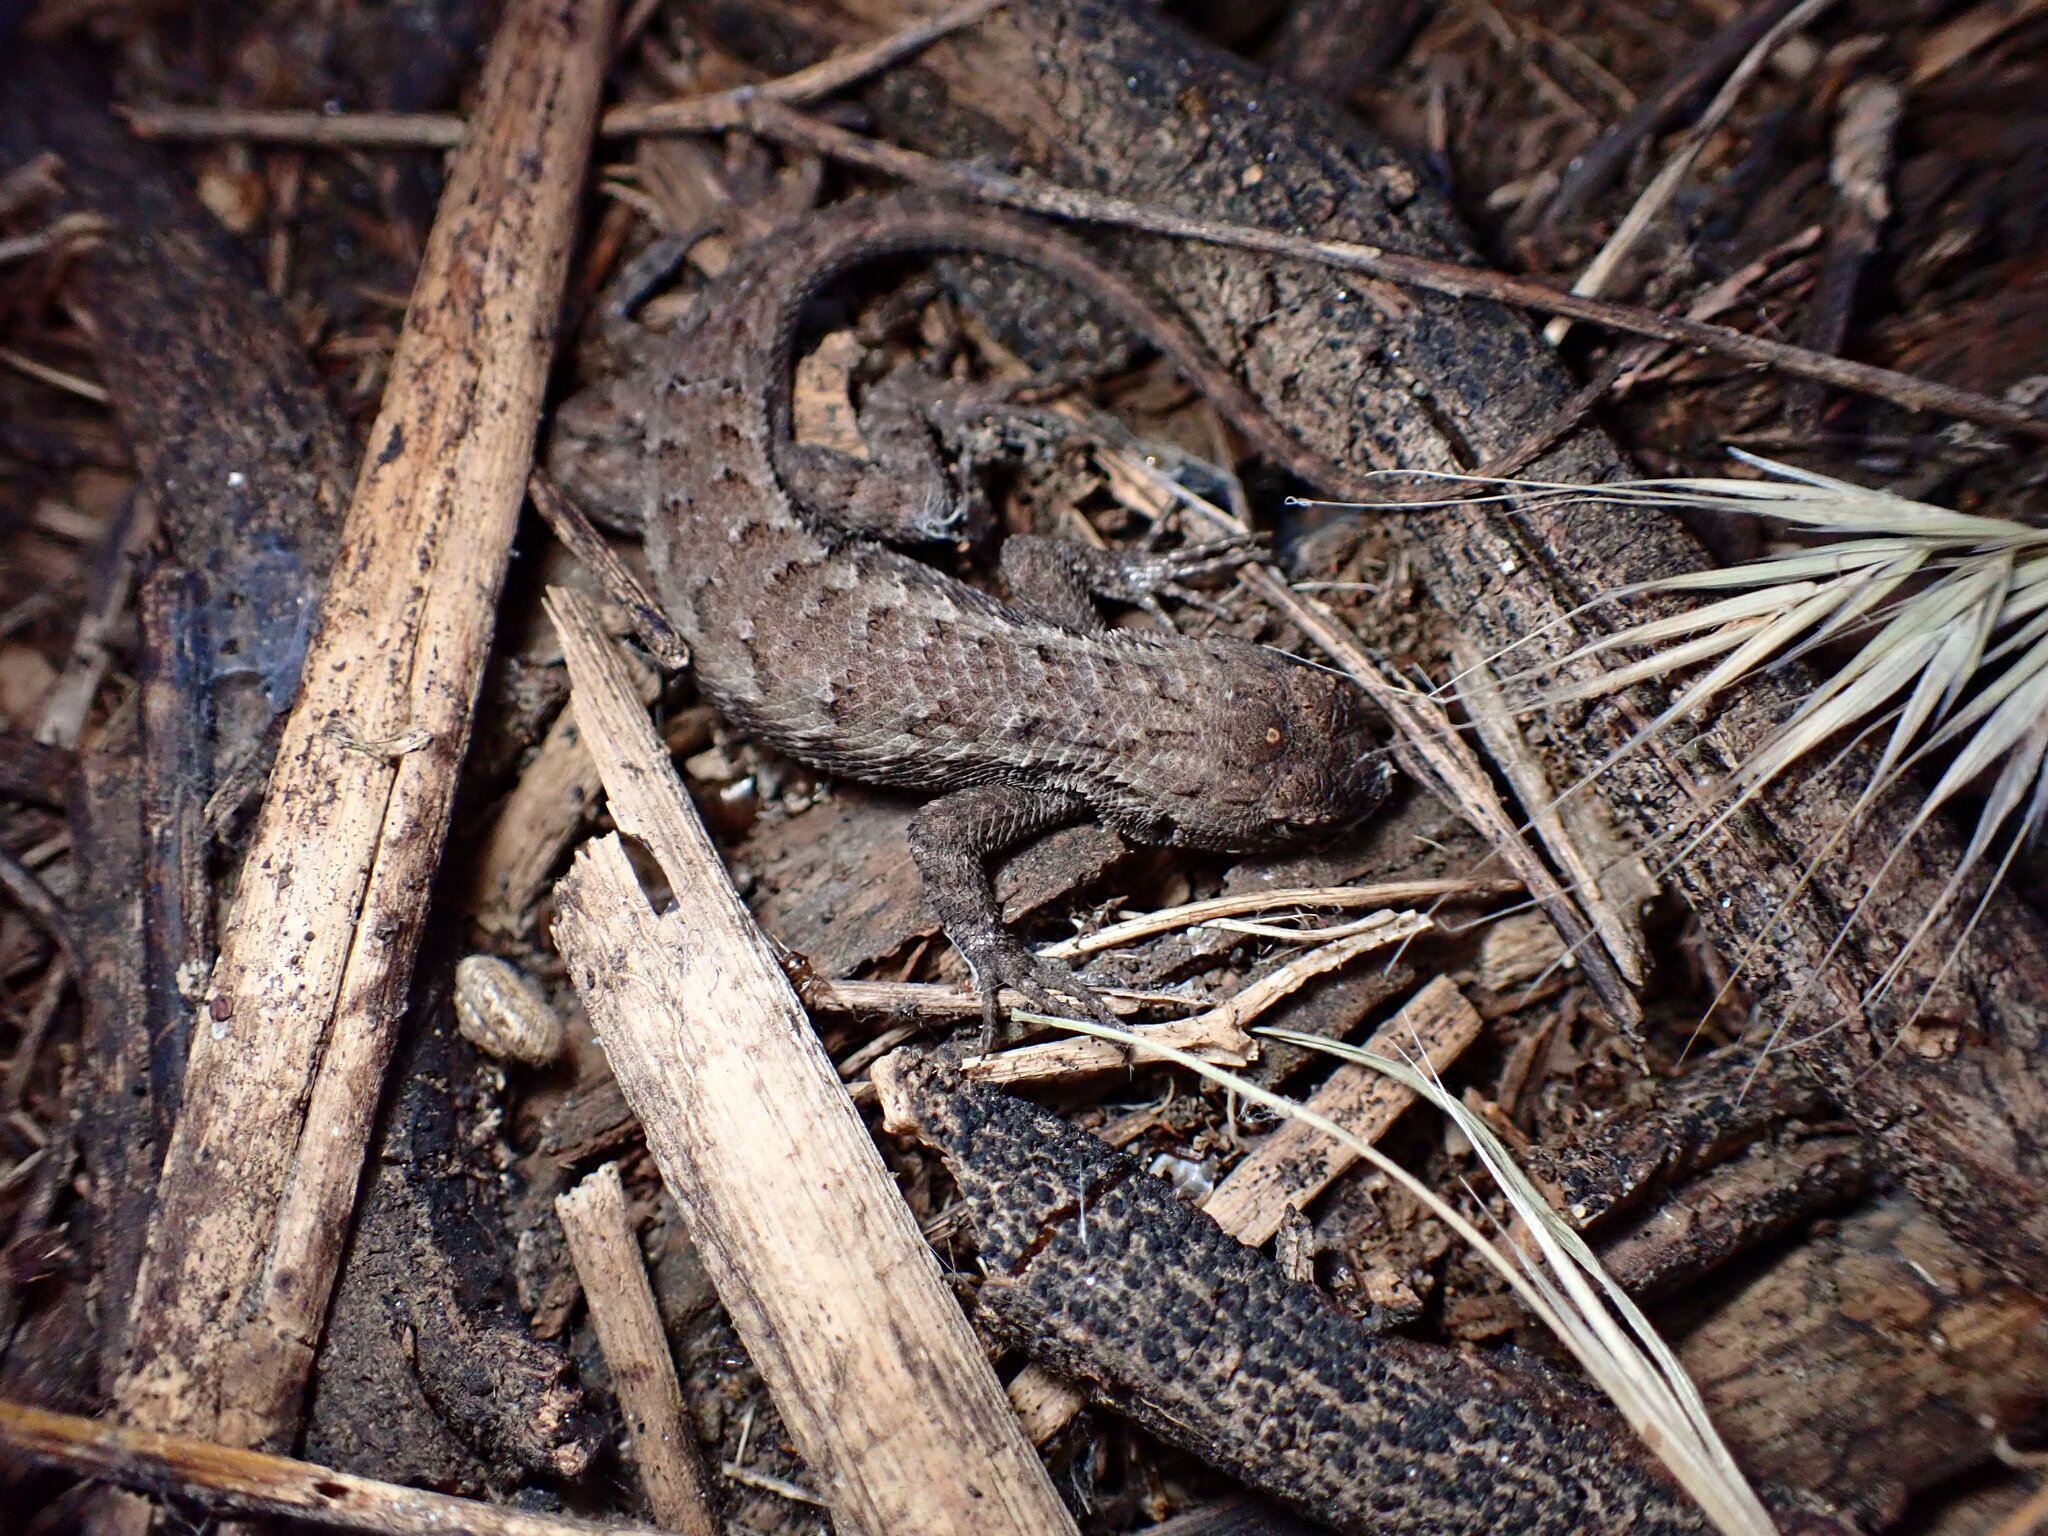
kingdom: Animalia
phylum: Chordata
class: Squamata
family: Phrynosomatidae
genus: Sceloporus
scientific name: Sceloporus occidentalis
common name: Western fence lizard
